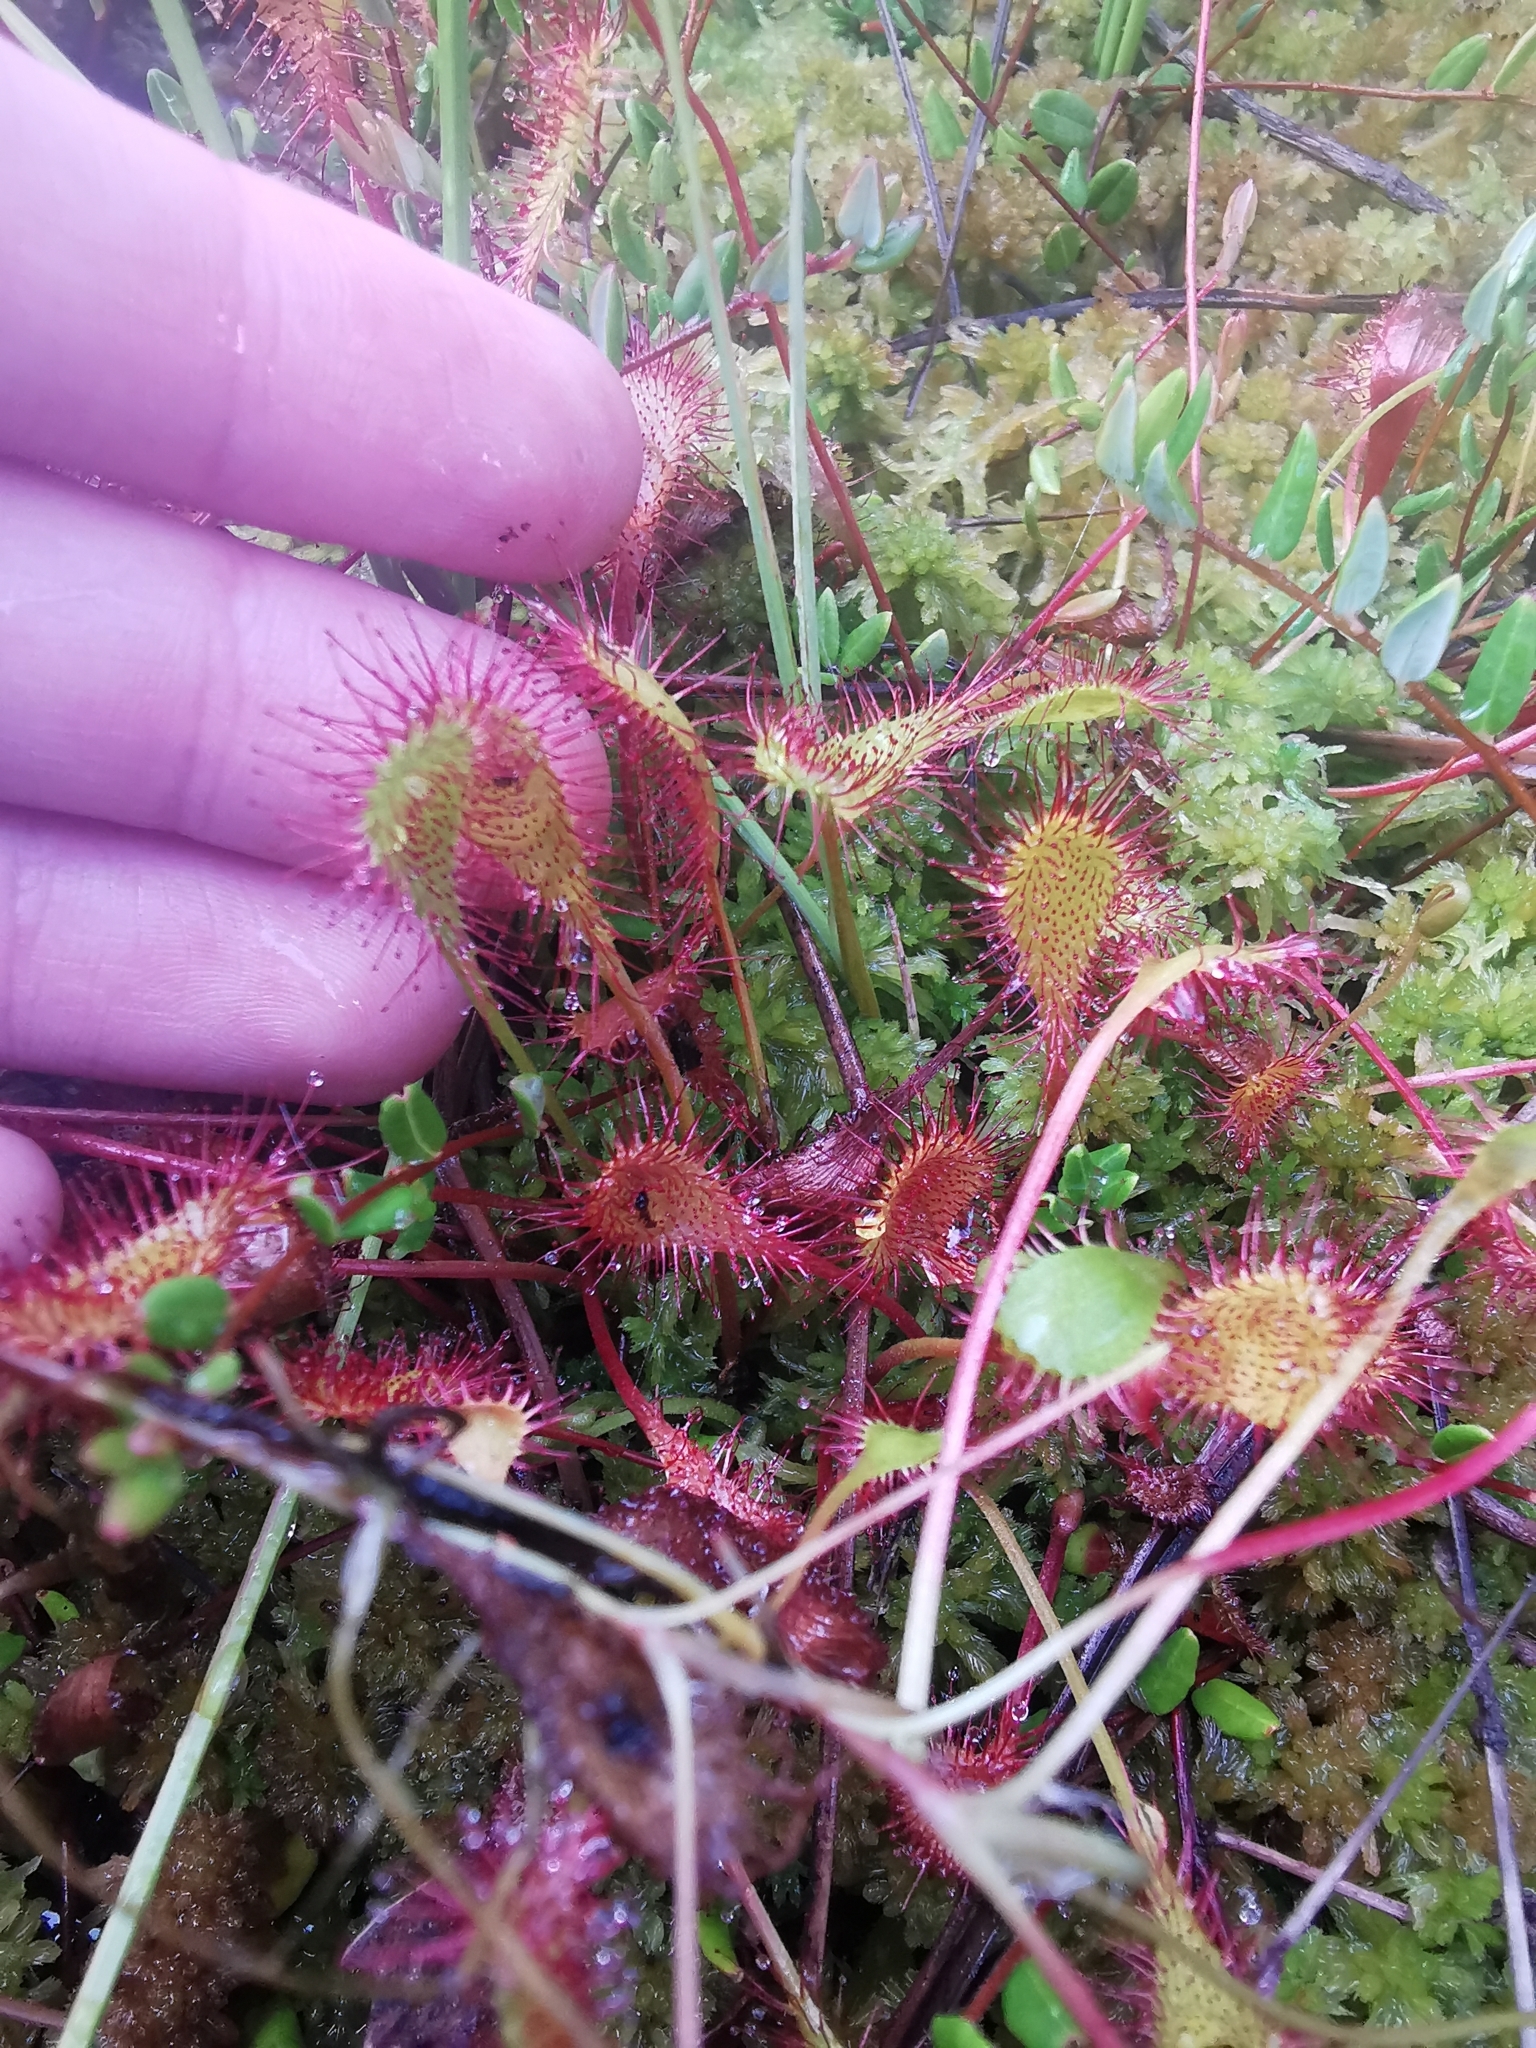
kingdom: Plantae
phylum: Tracheophyta
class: Magnoliopsida
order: Caryophyllales
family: Droseraceae
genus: Drosera
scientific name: Drosera obovata
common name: Ivan's paddle
